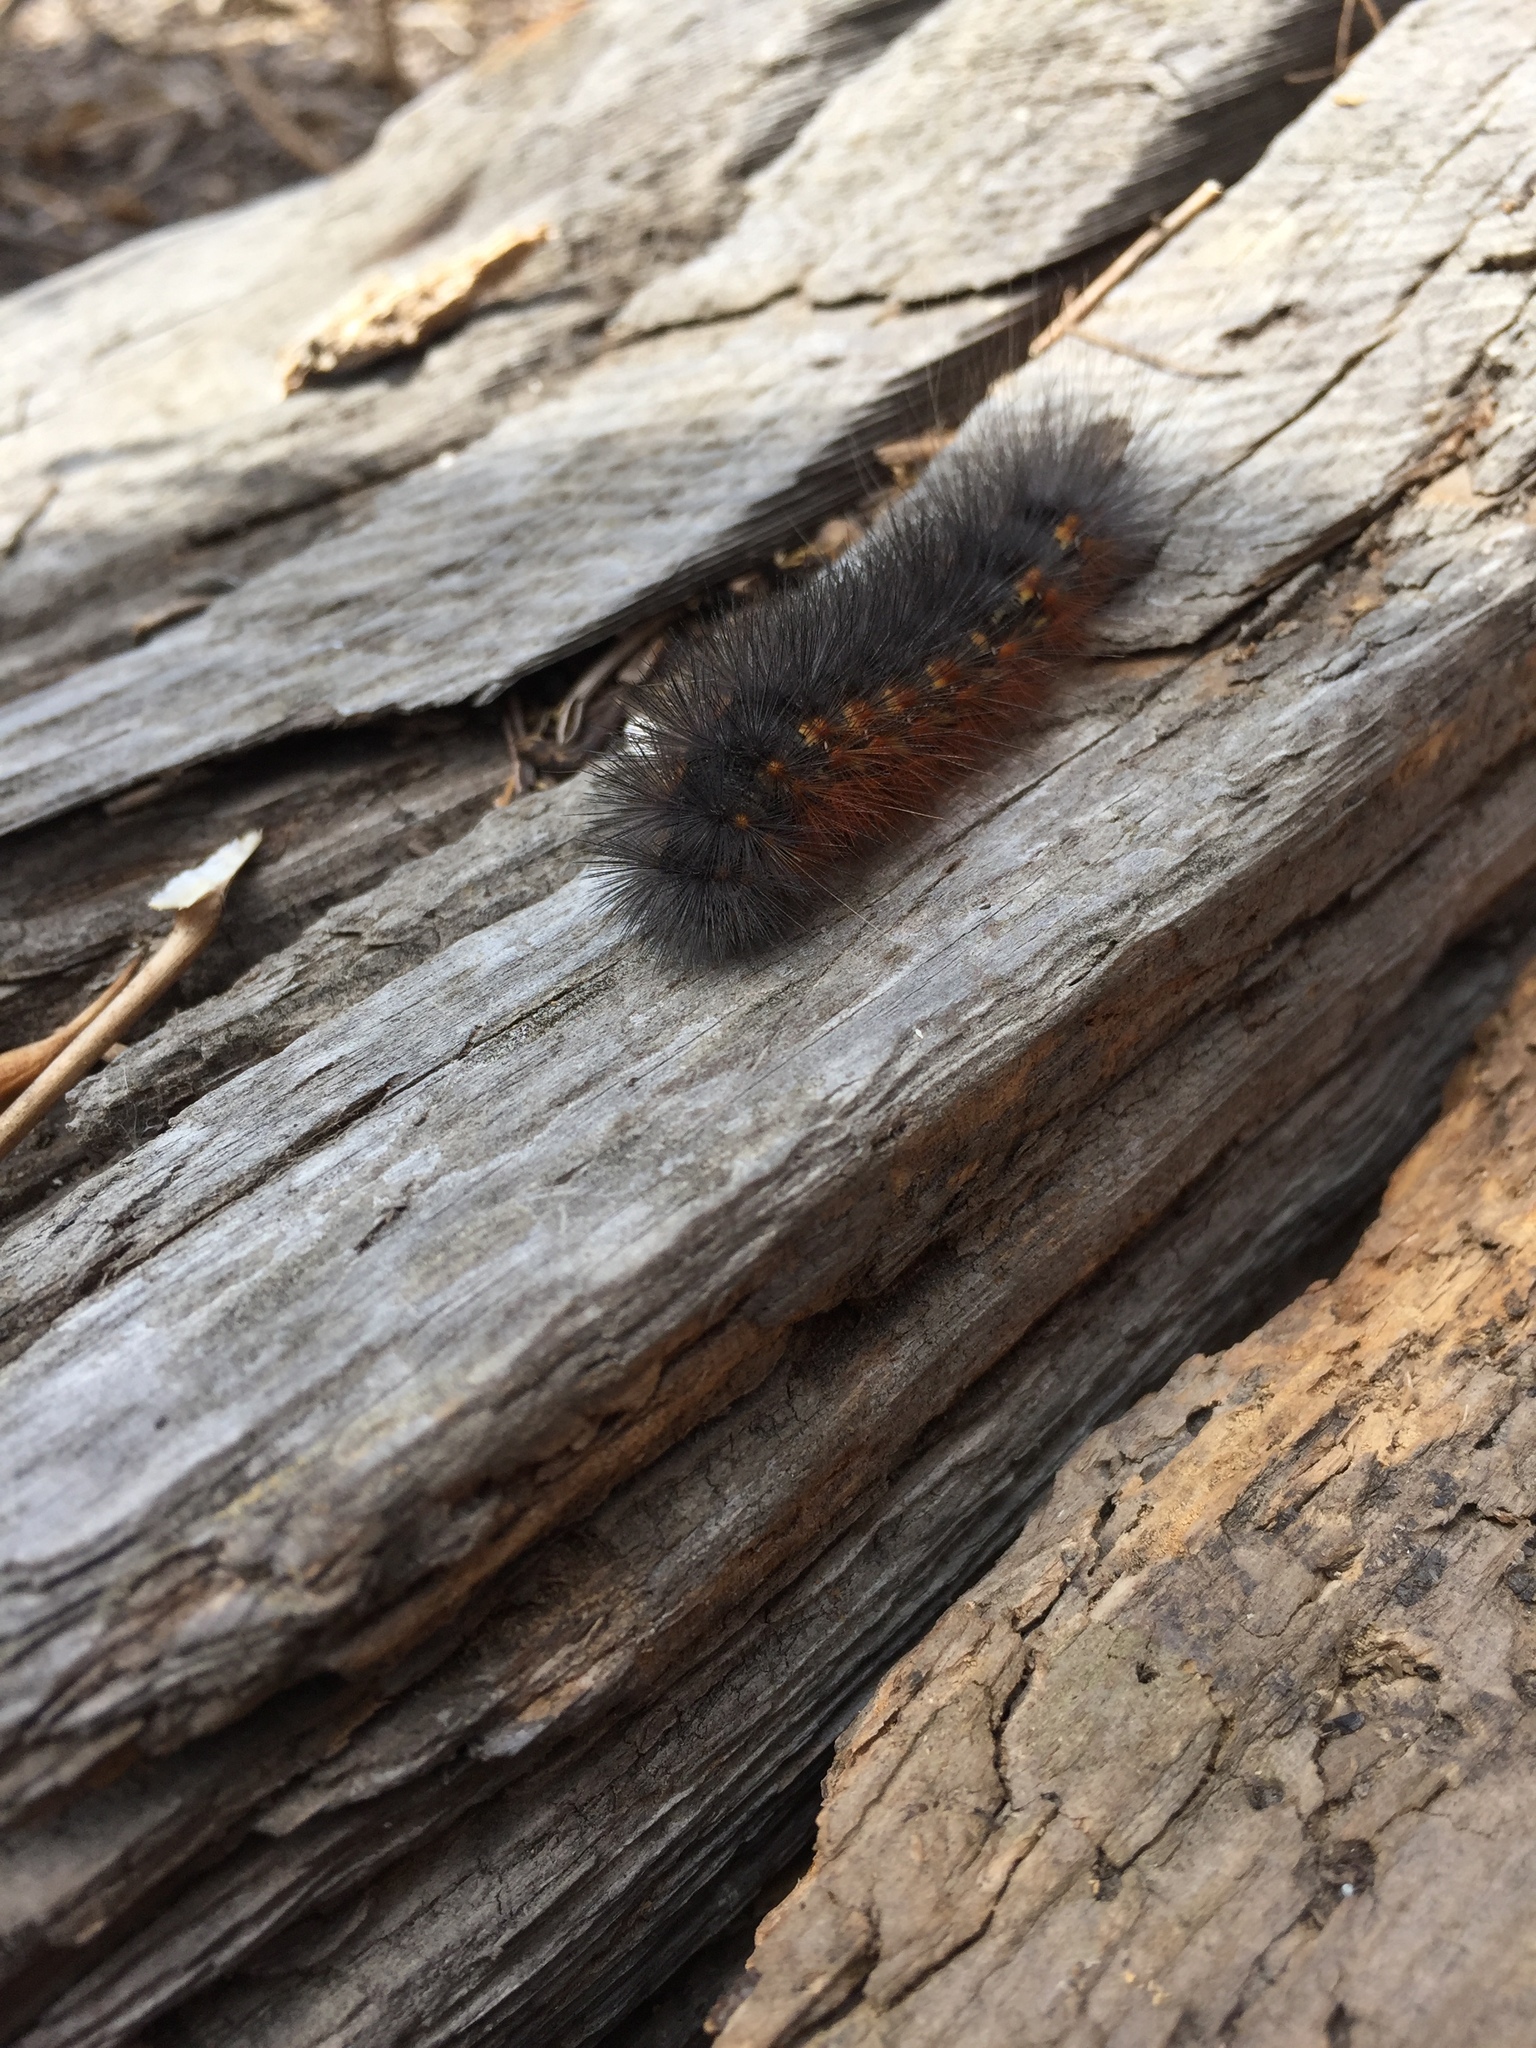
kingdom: Animalia
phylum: Arthropoda
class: Insecta
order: Lepidoptera
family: Erebidae
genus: Estigmene
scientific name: Estigmene acrea
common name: Salt marsh moth
